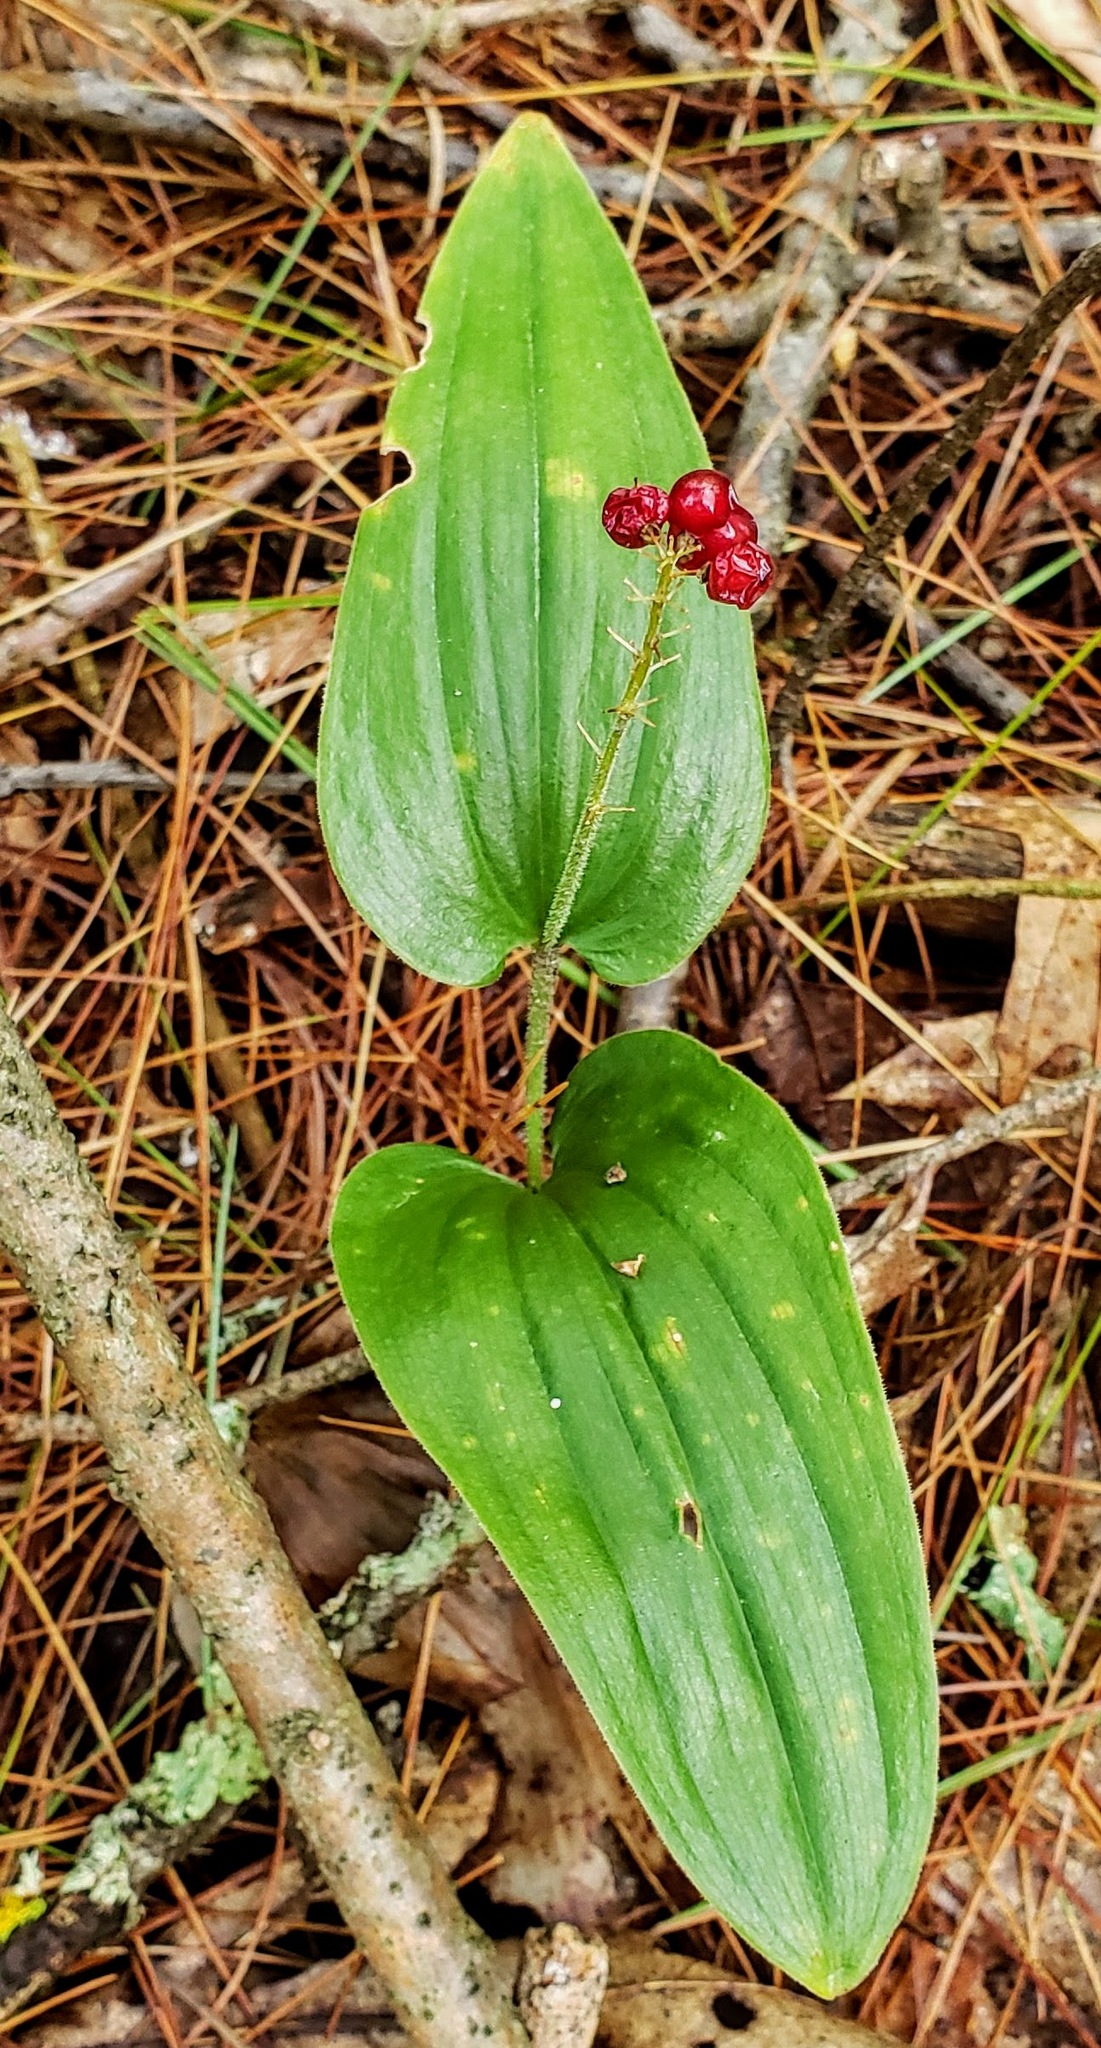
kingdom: Plantae
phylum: Tracheophyta
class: Liliopsida
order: Asparagales
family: Asparagaceae
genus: Maianthemum
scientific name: Maianthemum canadense
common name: False lily-of-the-valley
